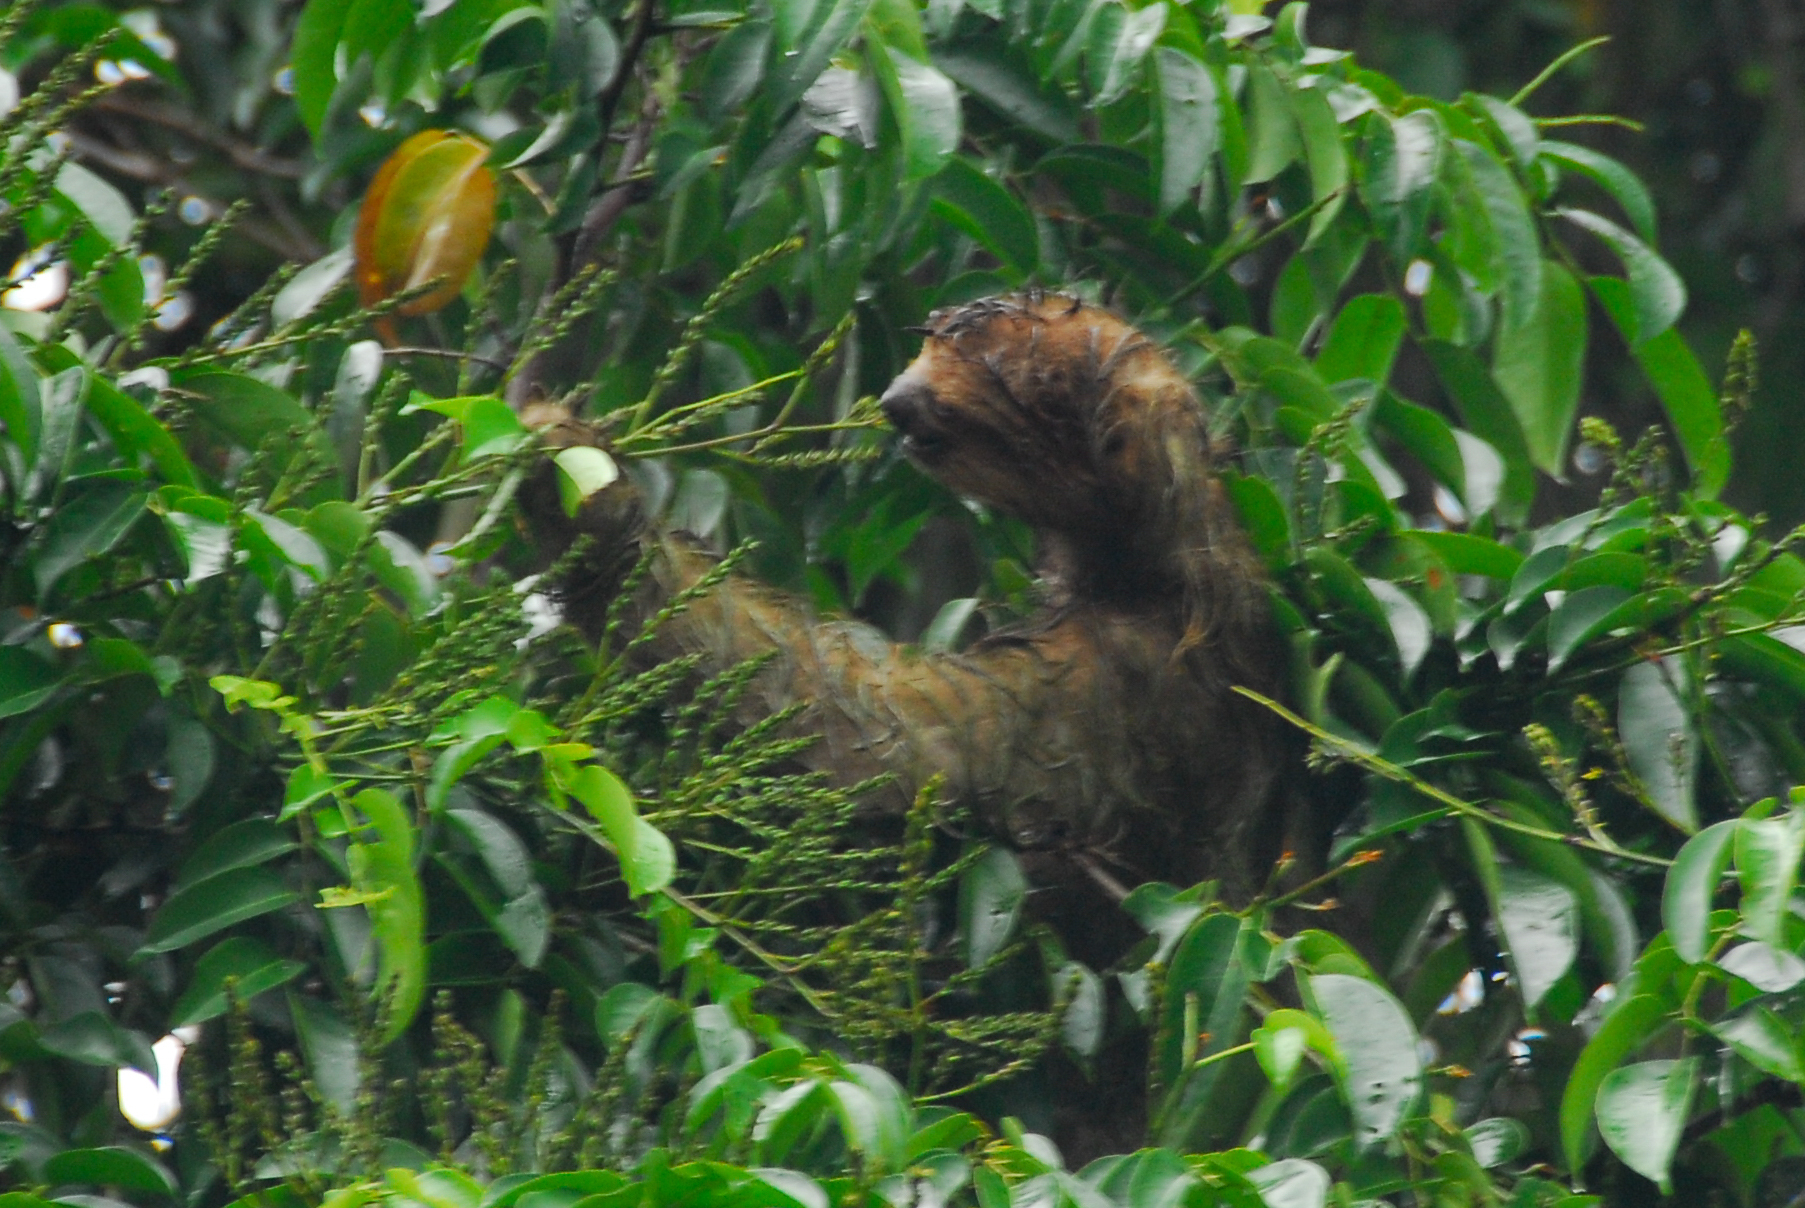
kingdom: Animalia
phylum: Chordata
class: Mammalia
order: Pilosa
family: Bradypodidae
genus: Bradypus
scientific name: Bradypus variegatus
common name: Brown-throated three-toed sloth
